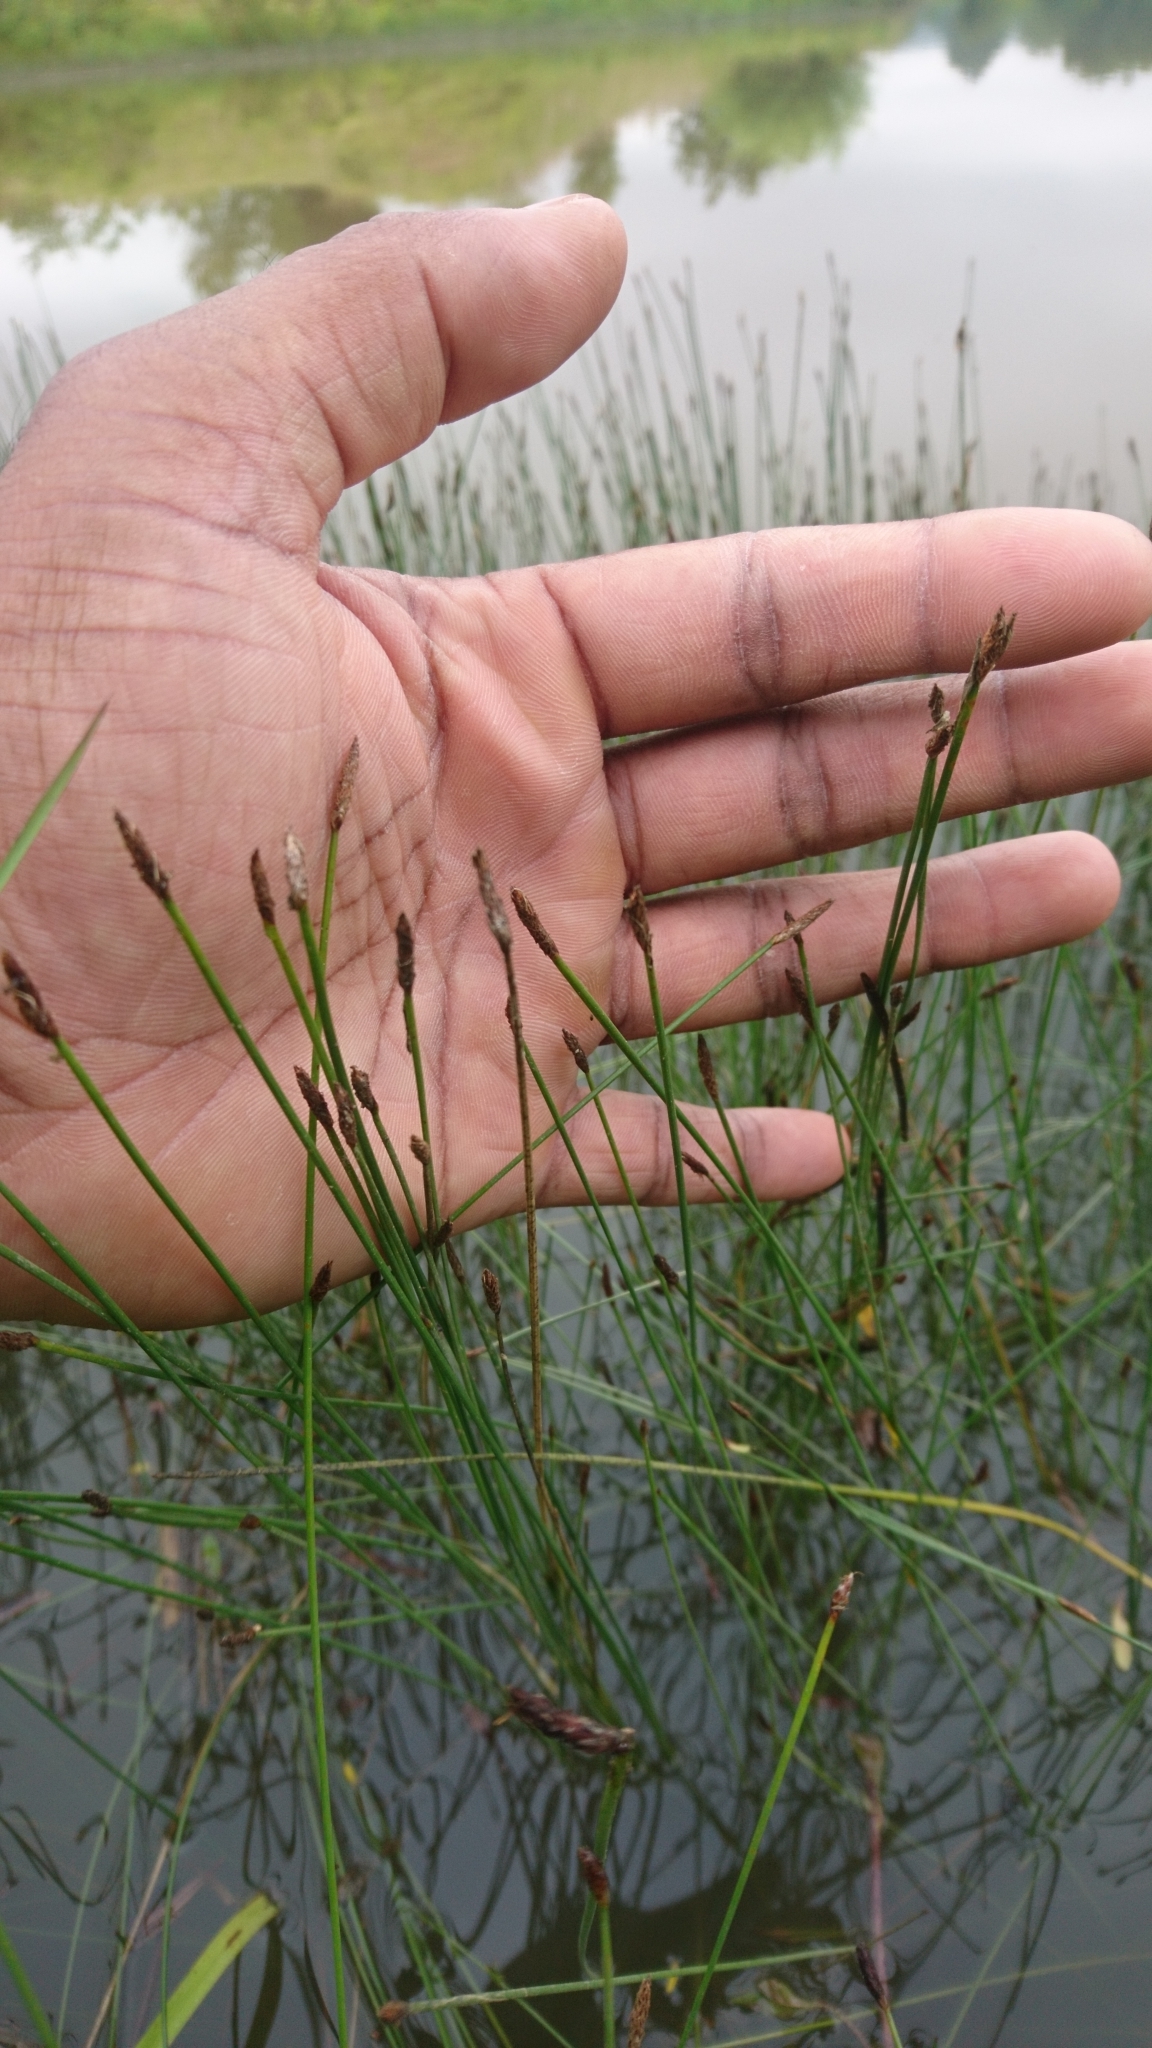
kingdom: Plantae
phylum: Tracheophyta
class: Liliopsida
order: Poales
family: Cyperaceae
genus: Eleocharis
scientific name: Eleocharis obtusa
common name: Blunt spikerush
